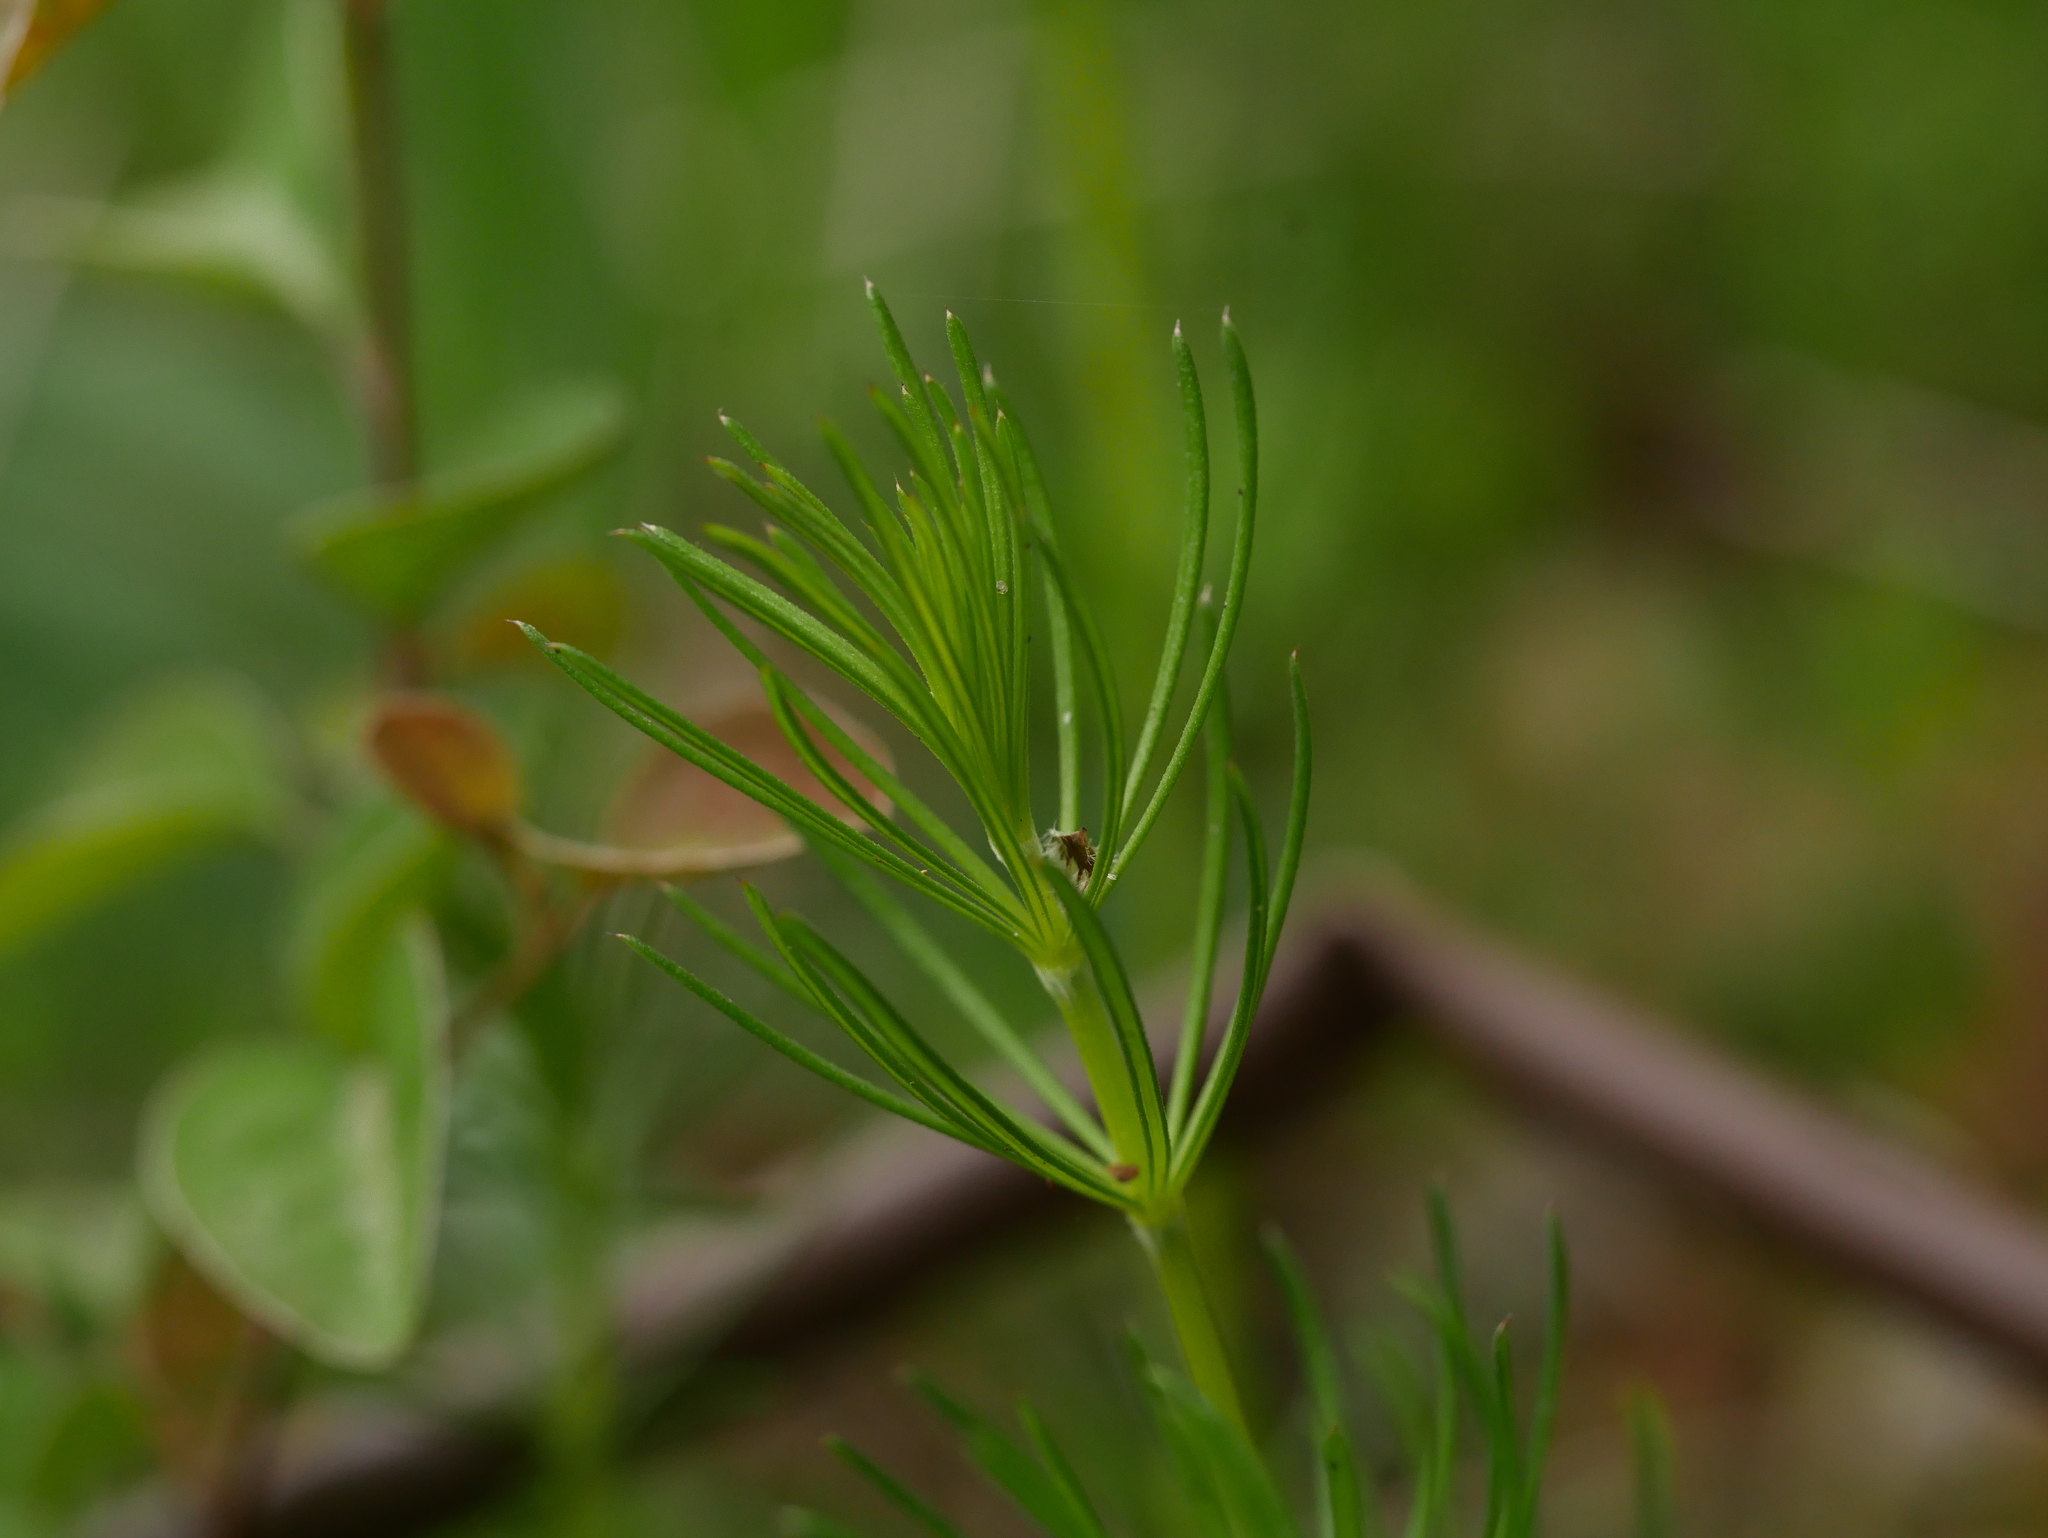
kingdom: Plantae
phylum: Tracheophyta
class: Magnoliopsida
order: Gentianales
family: Rubiaceae
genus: Galium
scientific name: Galium verum
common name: Lady's bedstraw
